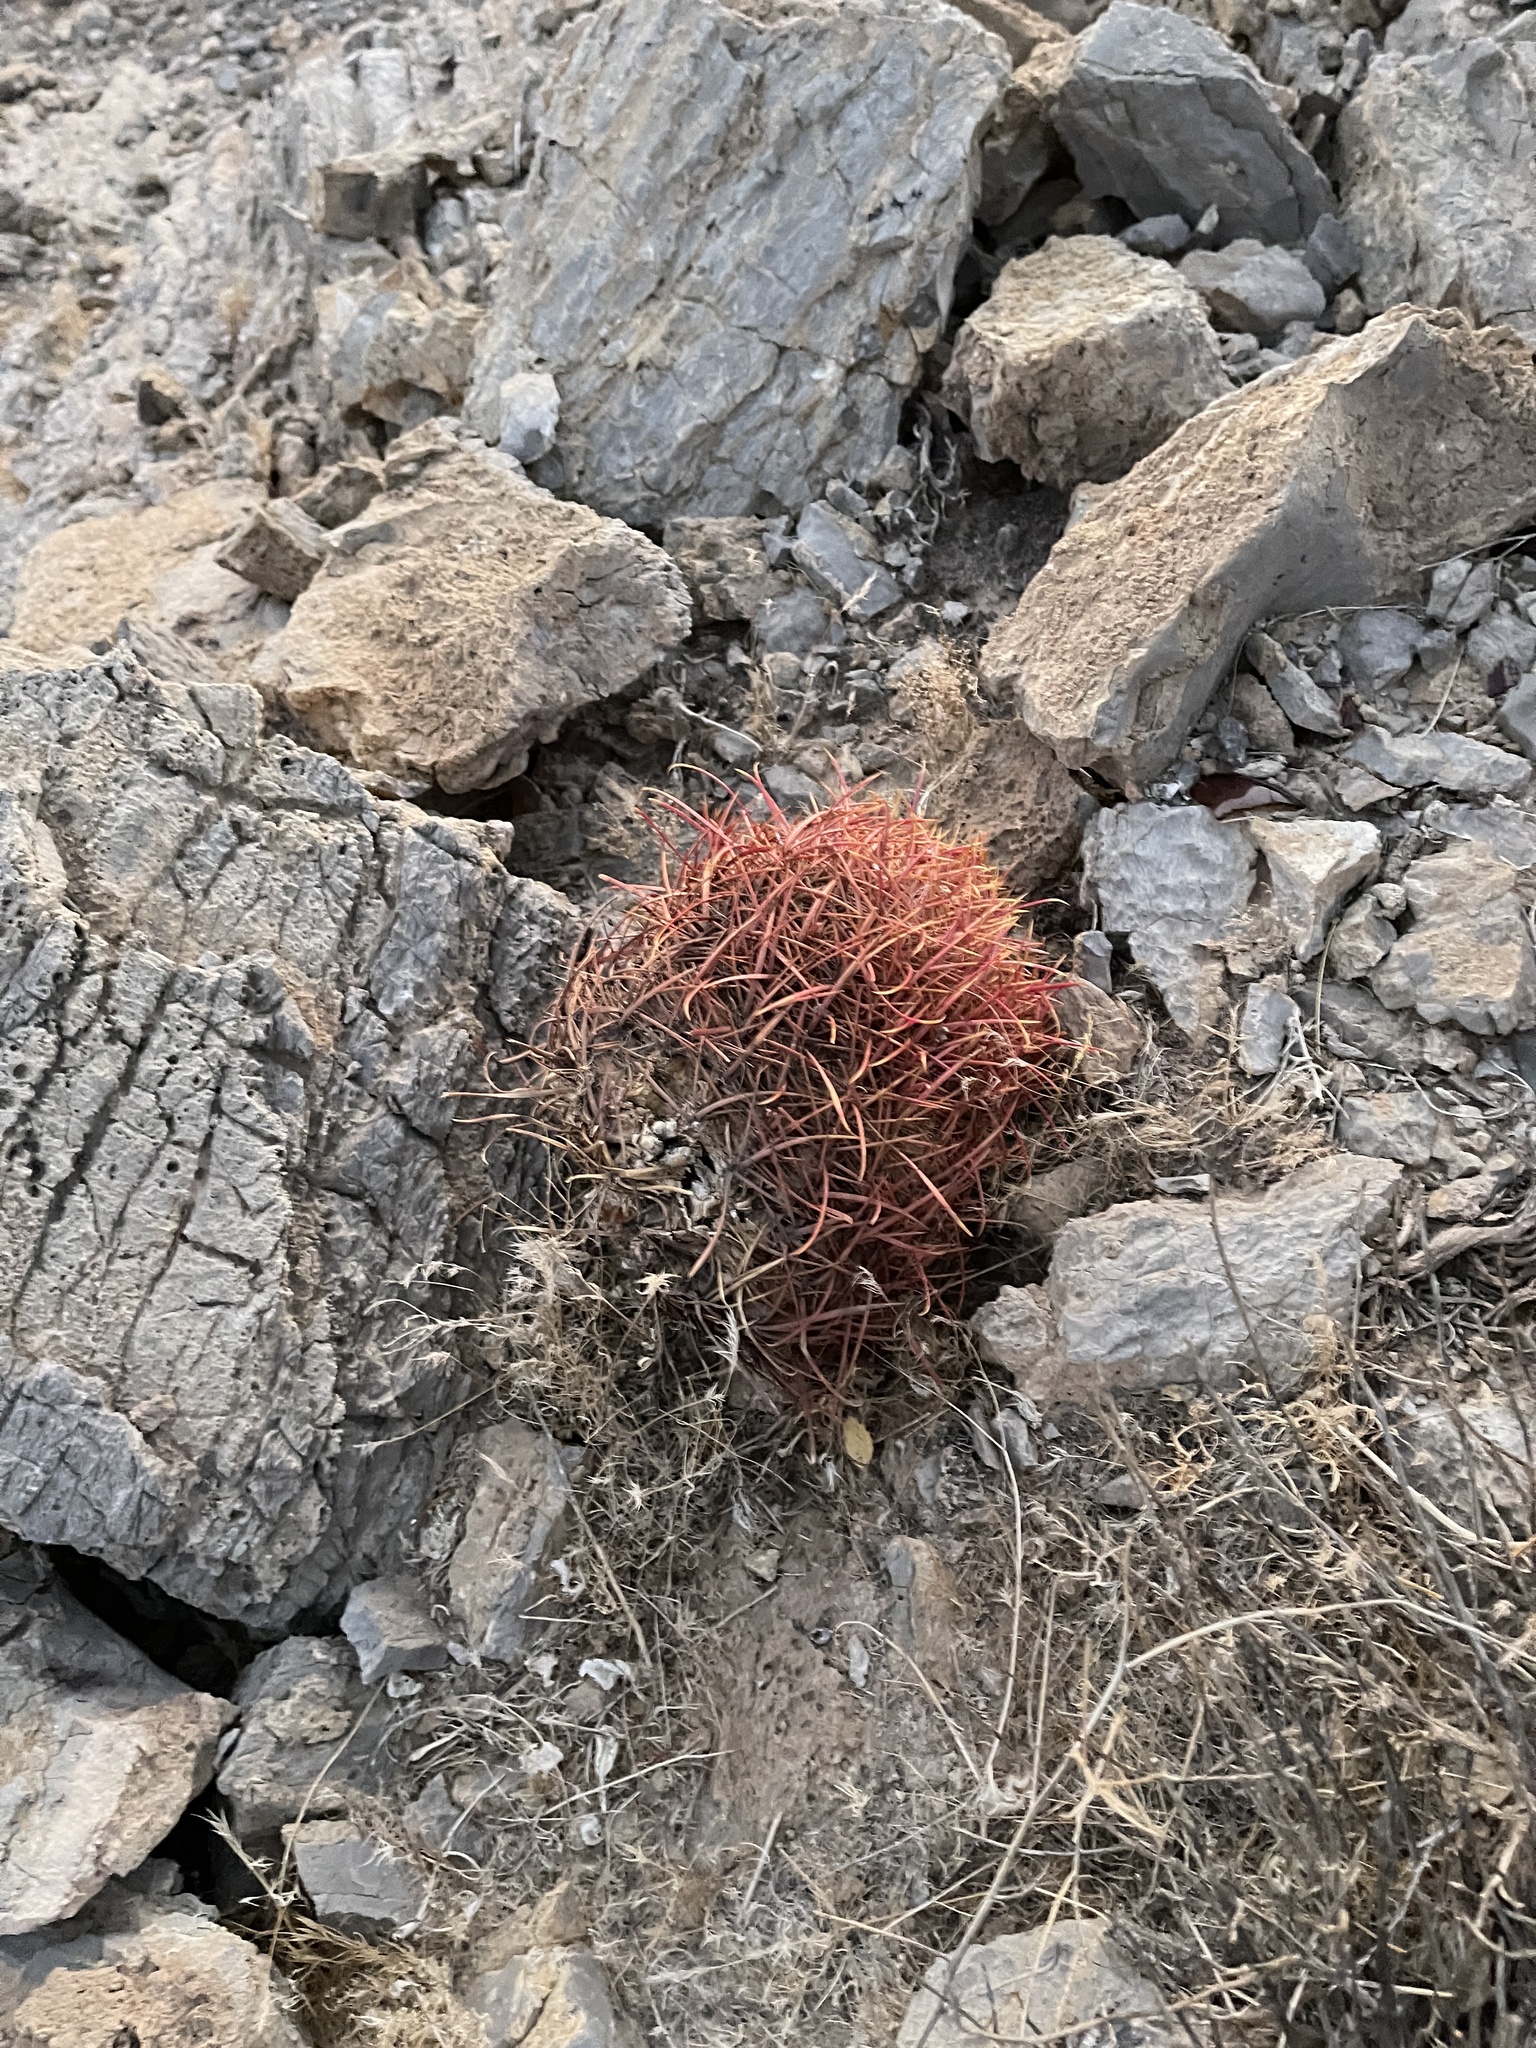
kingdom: Plantae
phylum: Tracheophyta
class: Magnoliopsida
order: Caryophyllales
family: Cactaceae
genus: Ferocactus
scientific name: Ferocactus cylindraceus
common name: California barrel cactus
